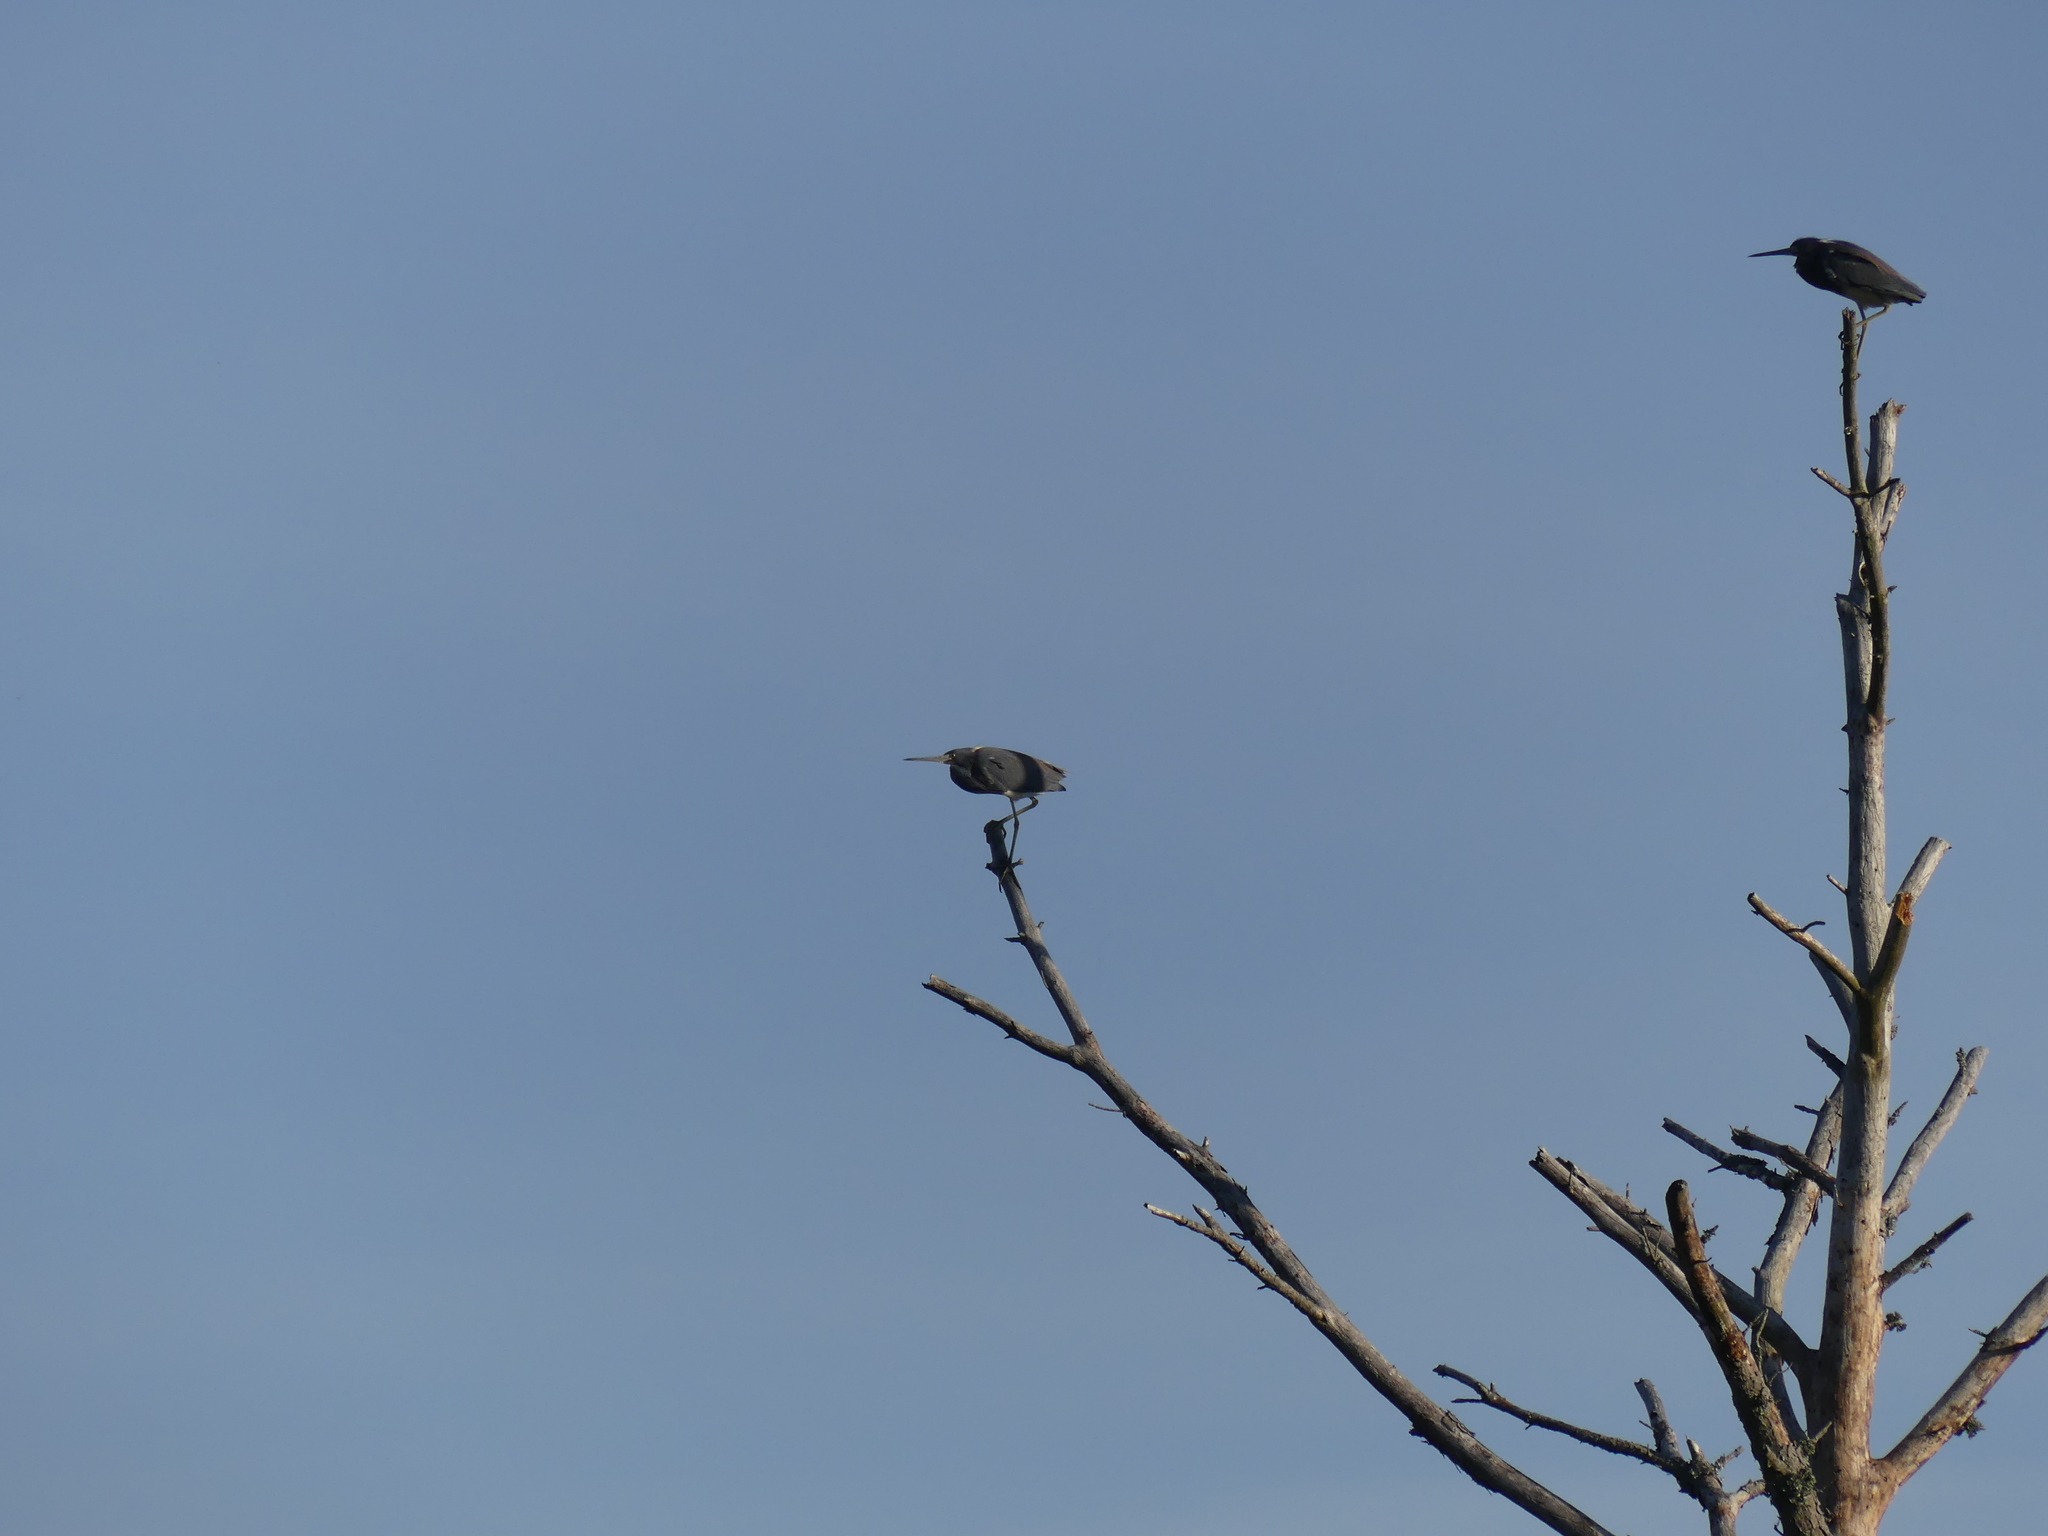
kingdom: Animalia
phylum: Chordata
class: Aves
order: Pelecaniformes
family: Ardeidae
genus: Egretta
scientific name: Egretta tricolor
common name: Tricolored heron
